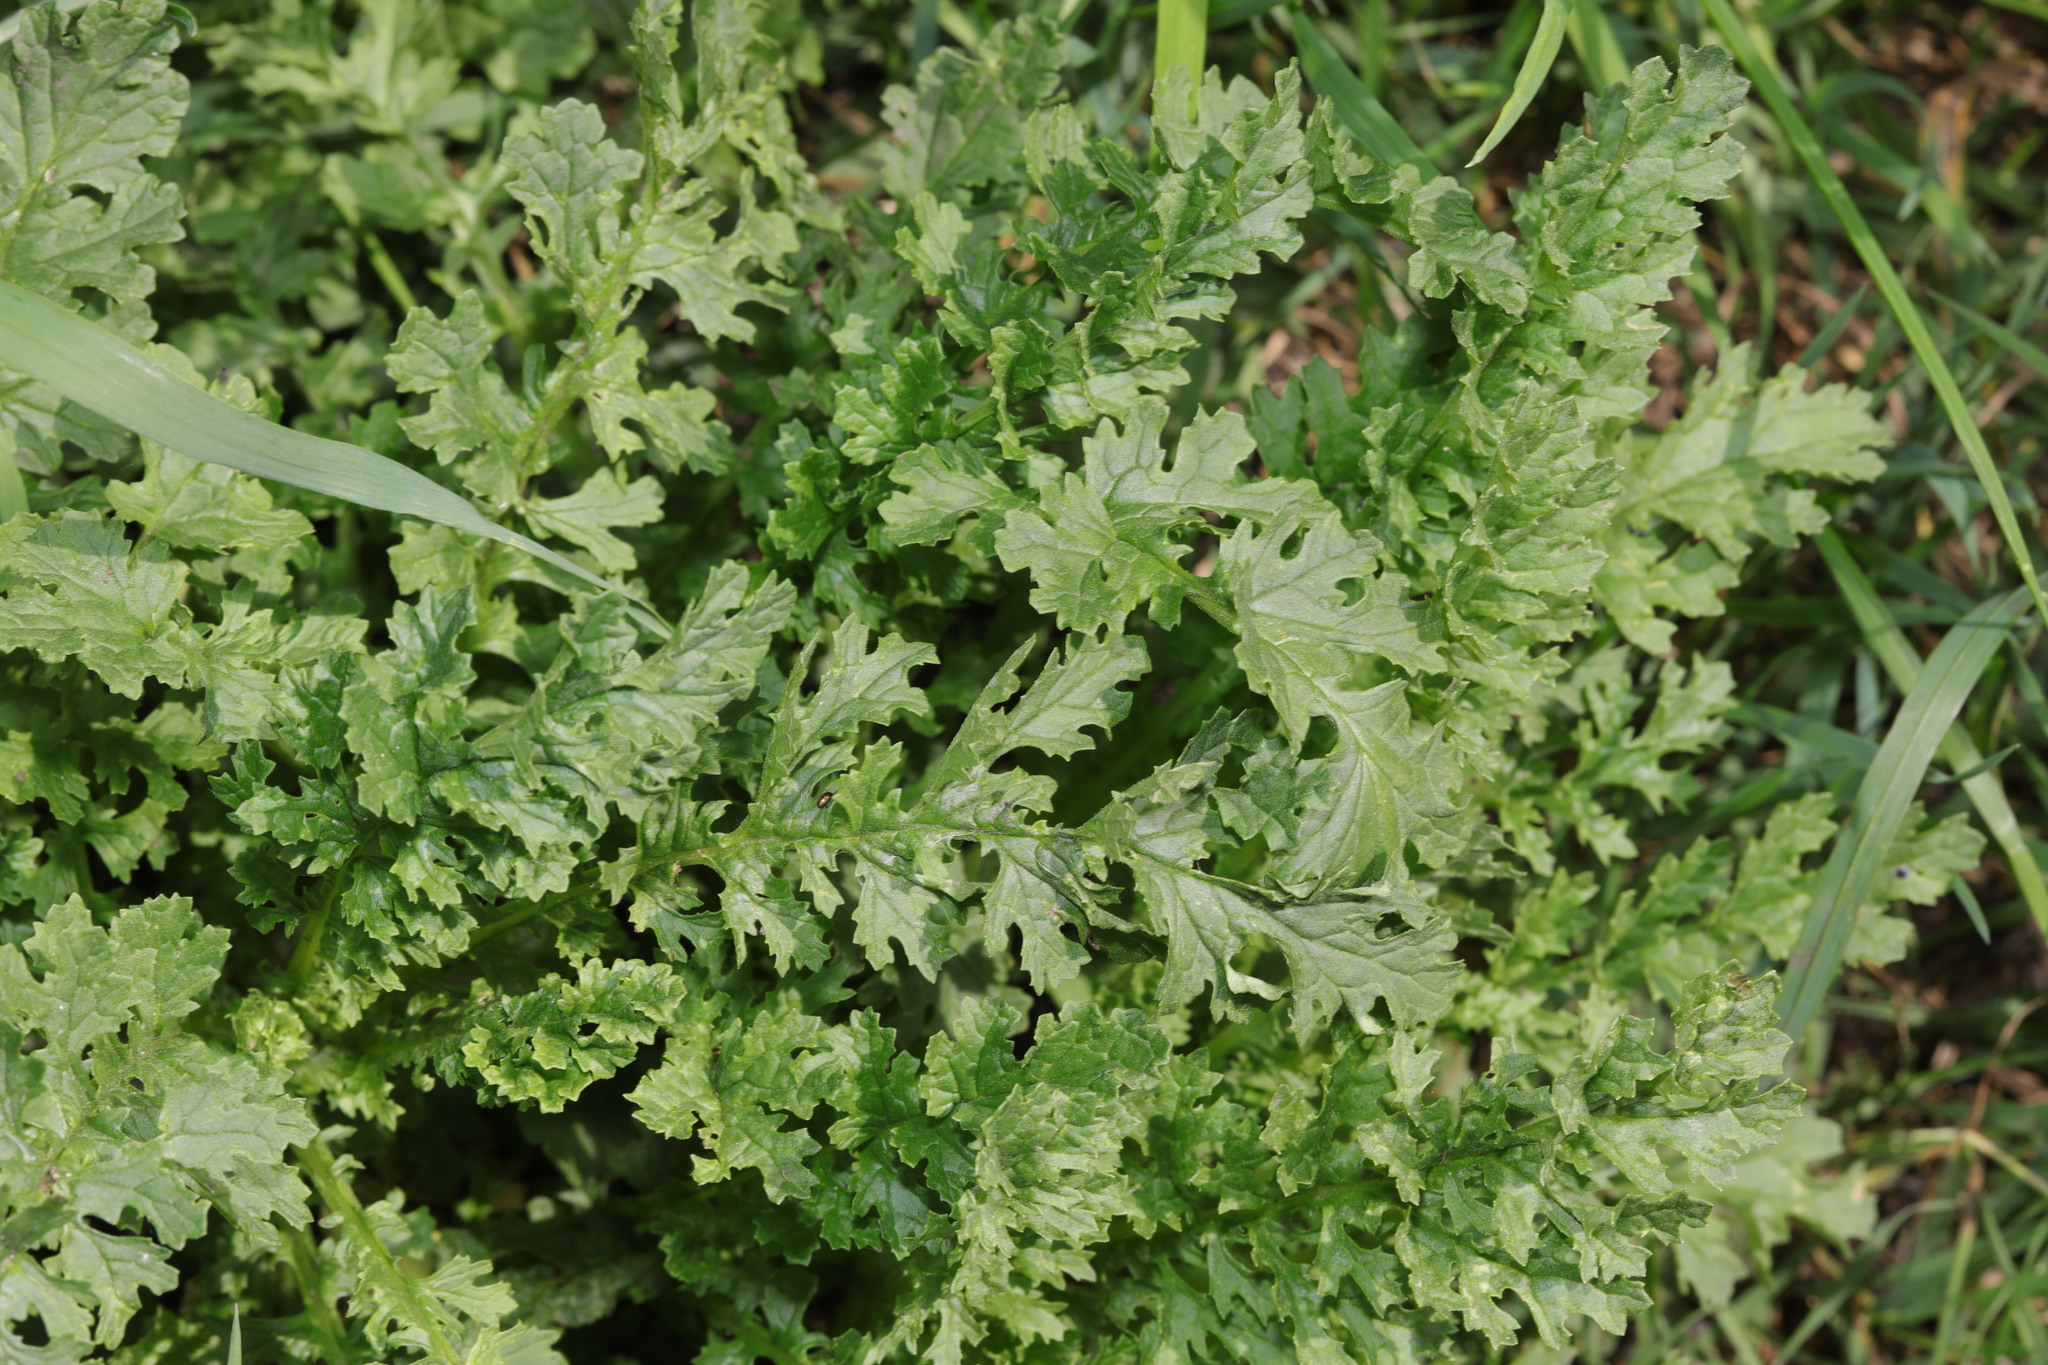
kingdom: Plantae
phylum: Tracheophyta
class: Magnoliopsida
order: Asterales
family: Asteraceae
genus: Jacobaea
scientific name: Jacobaea vulgaris
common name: Stinking willie
